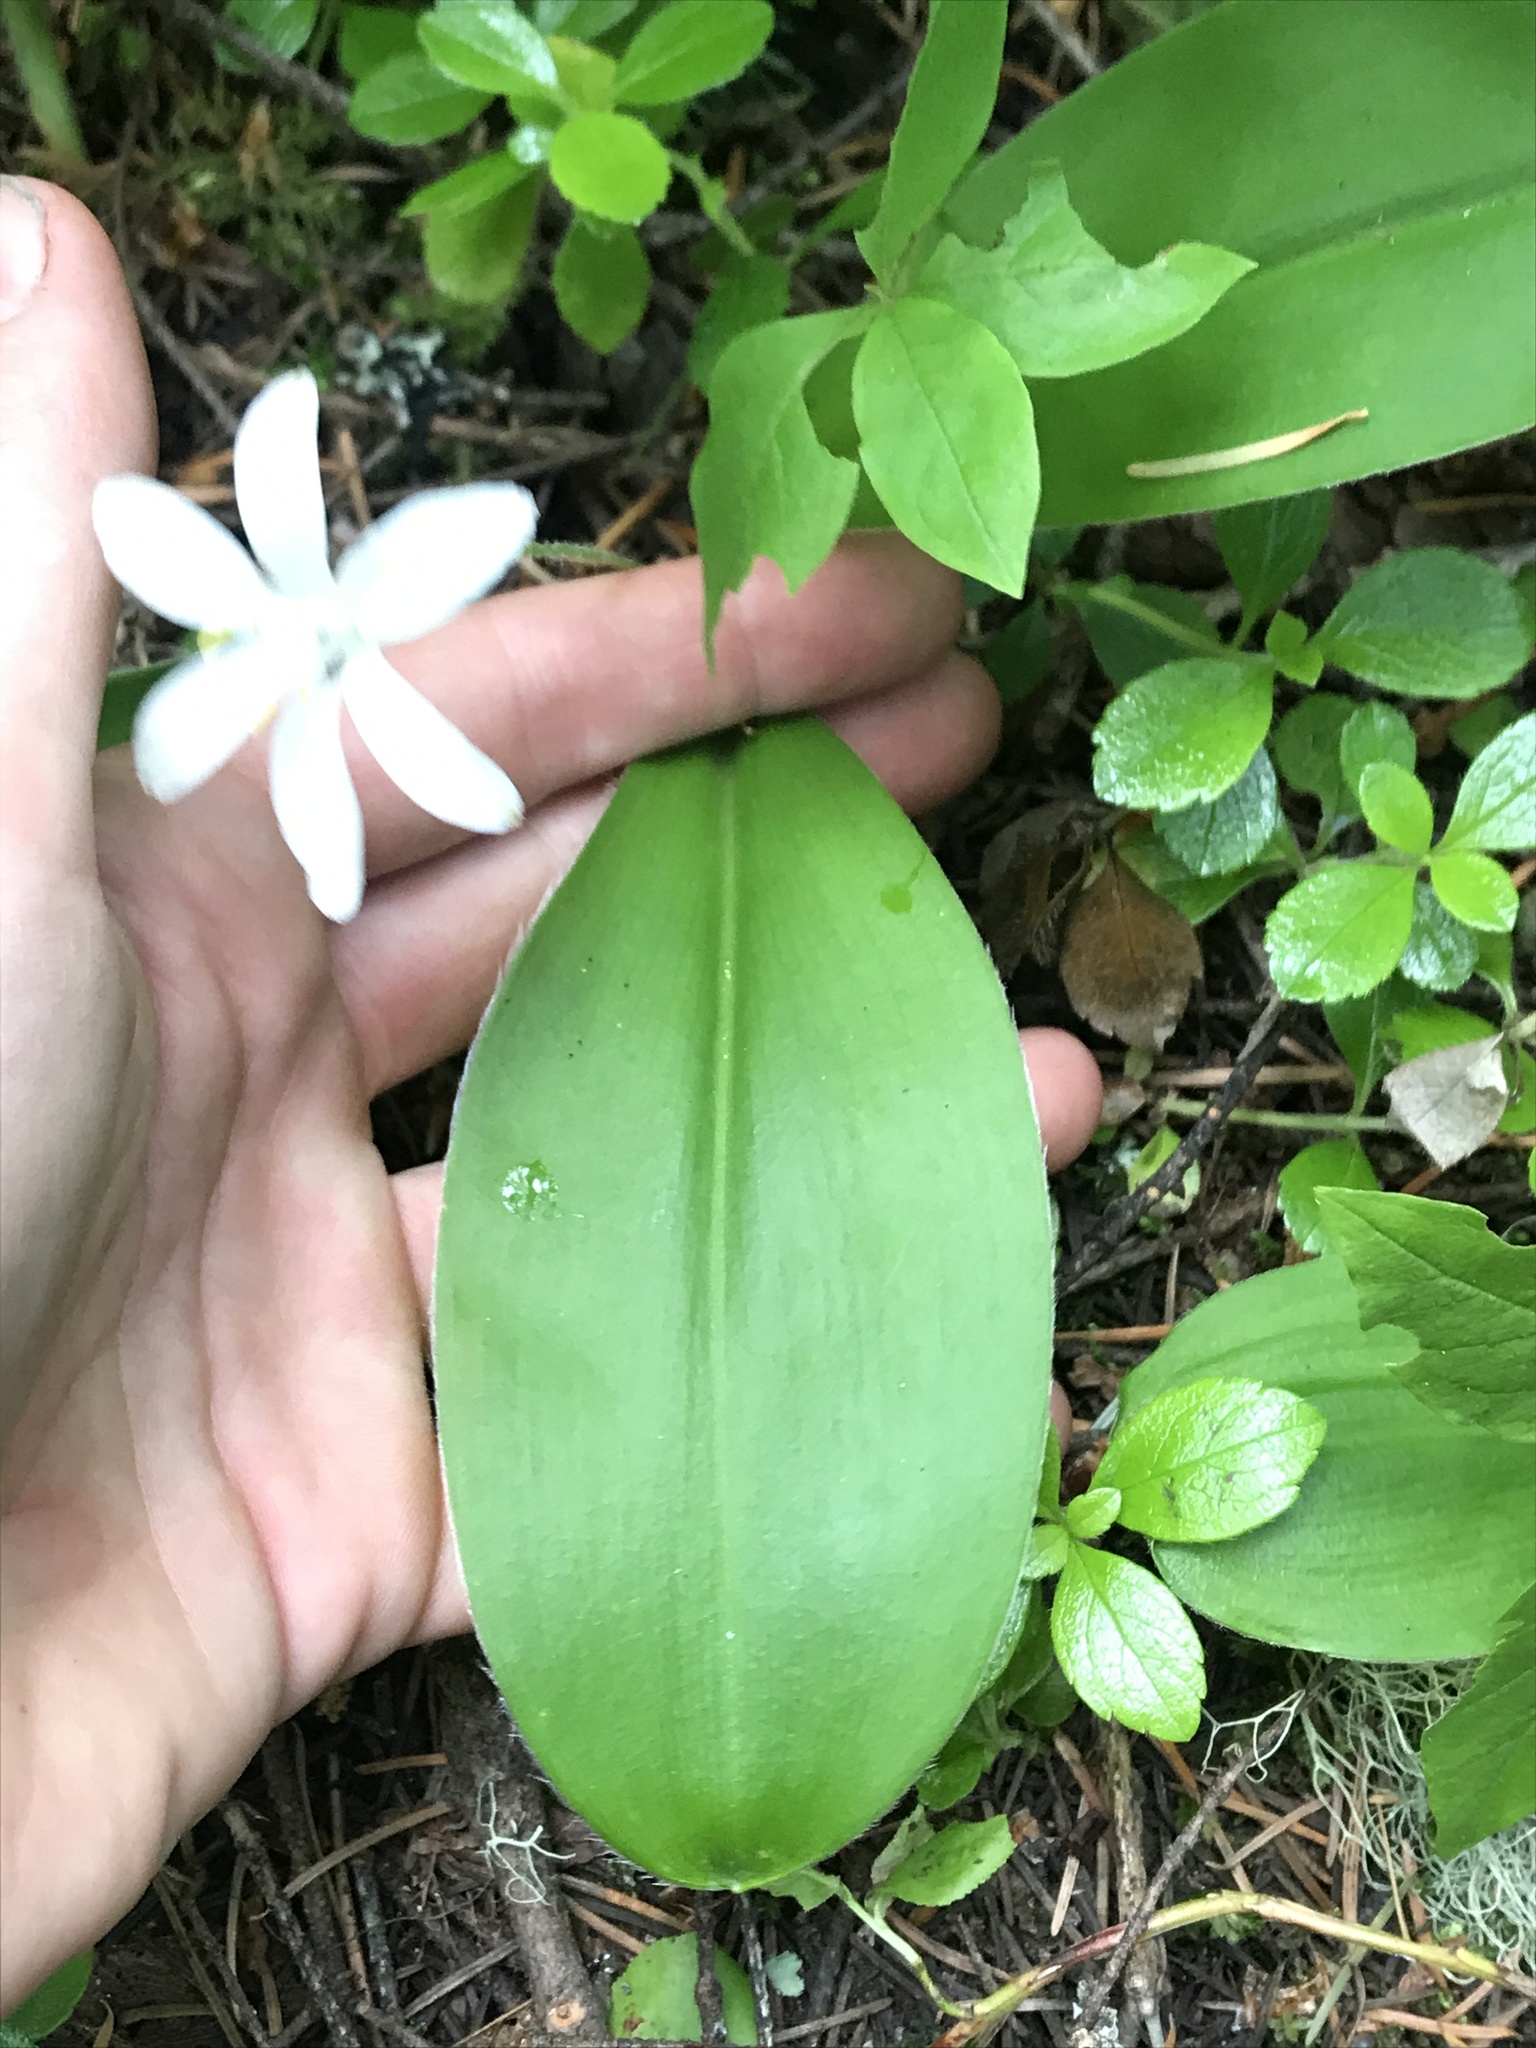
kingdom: Plantae
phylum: Tracheophyta
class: Liliopsida
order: Liliales
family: Liliaceae
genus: Clintonia
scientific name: Clintonia uniflora
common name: Queen's cup
